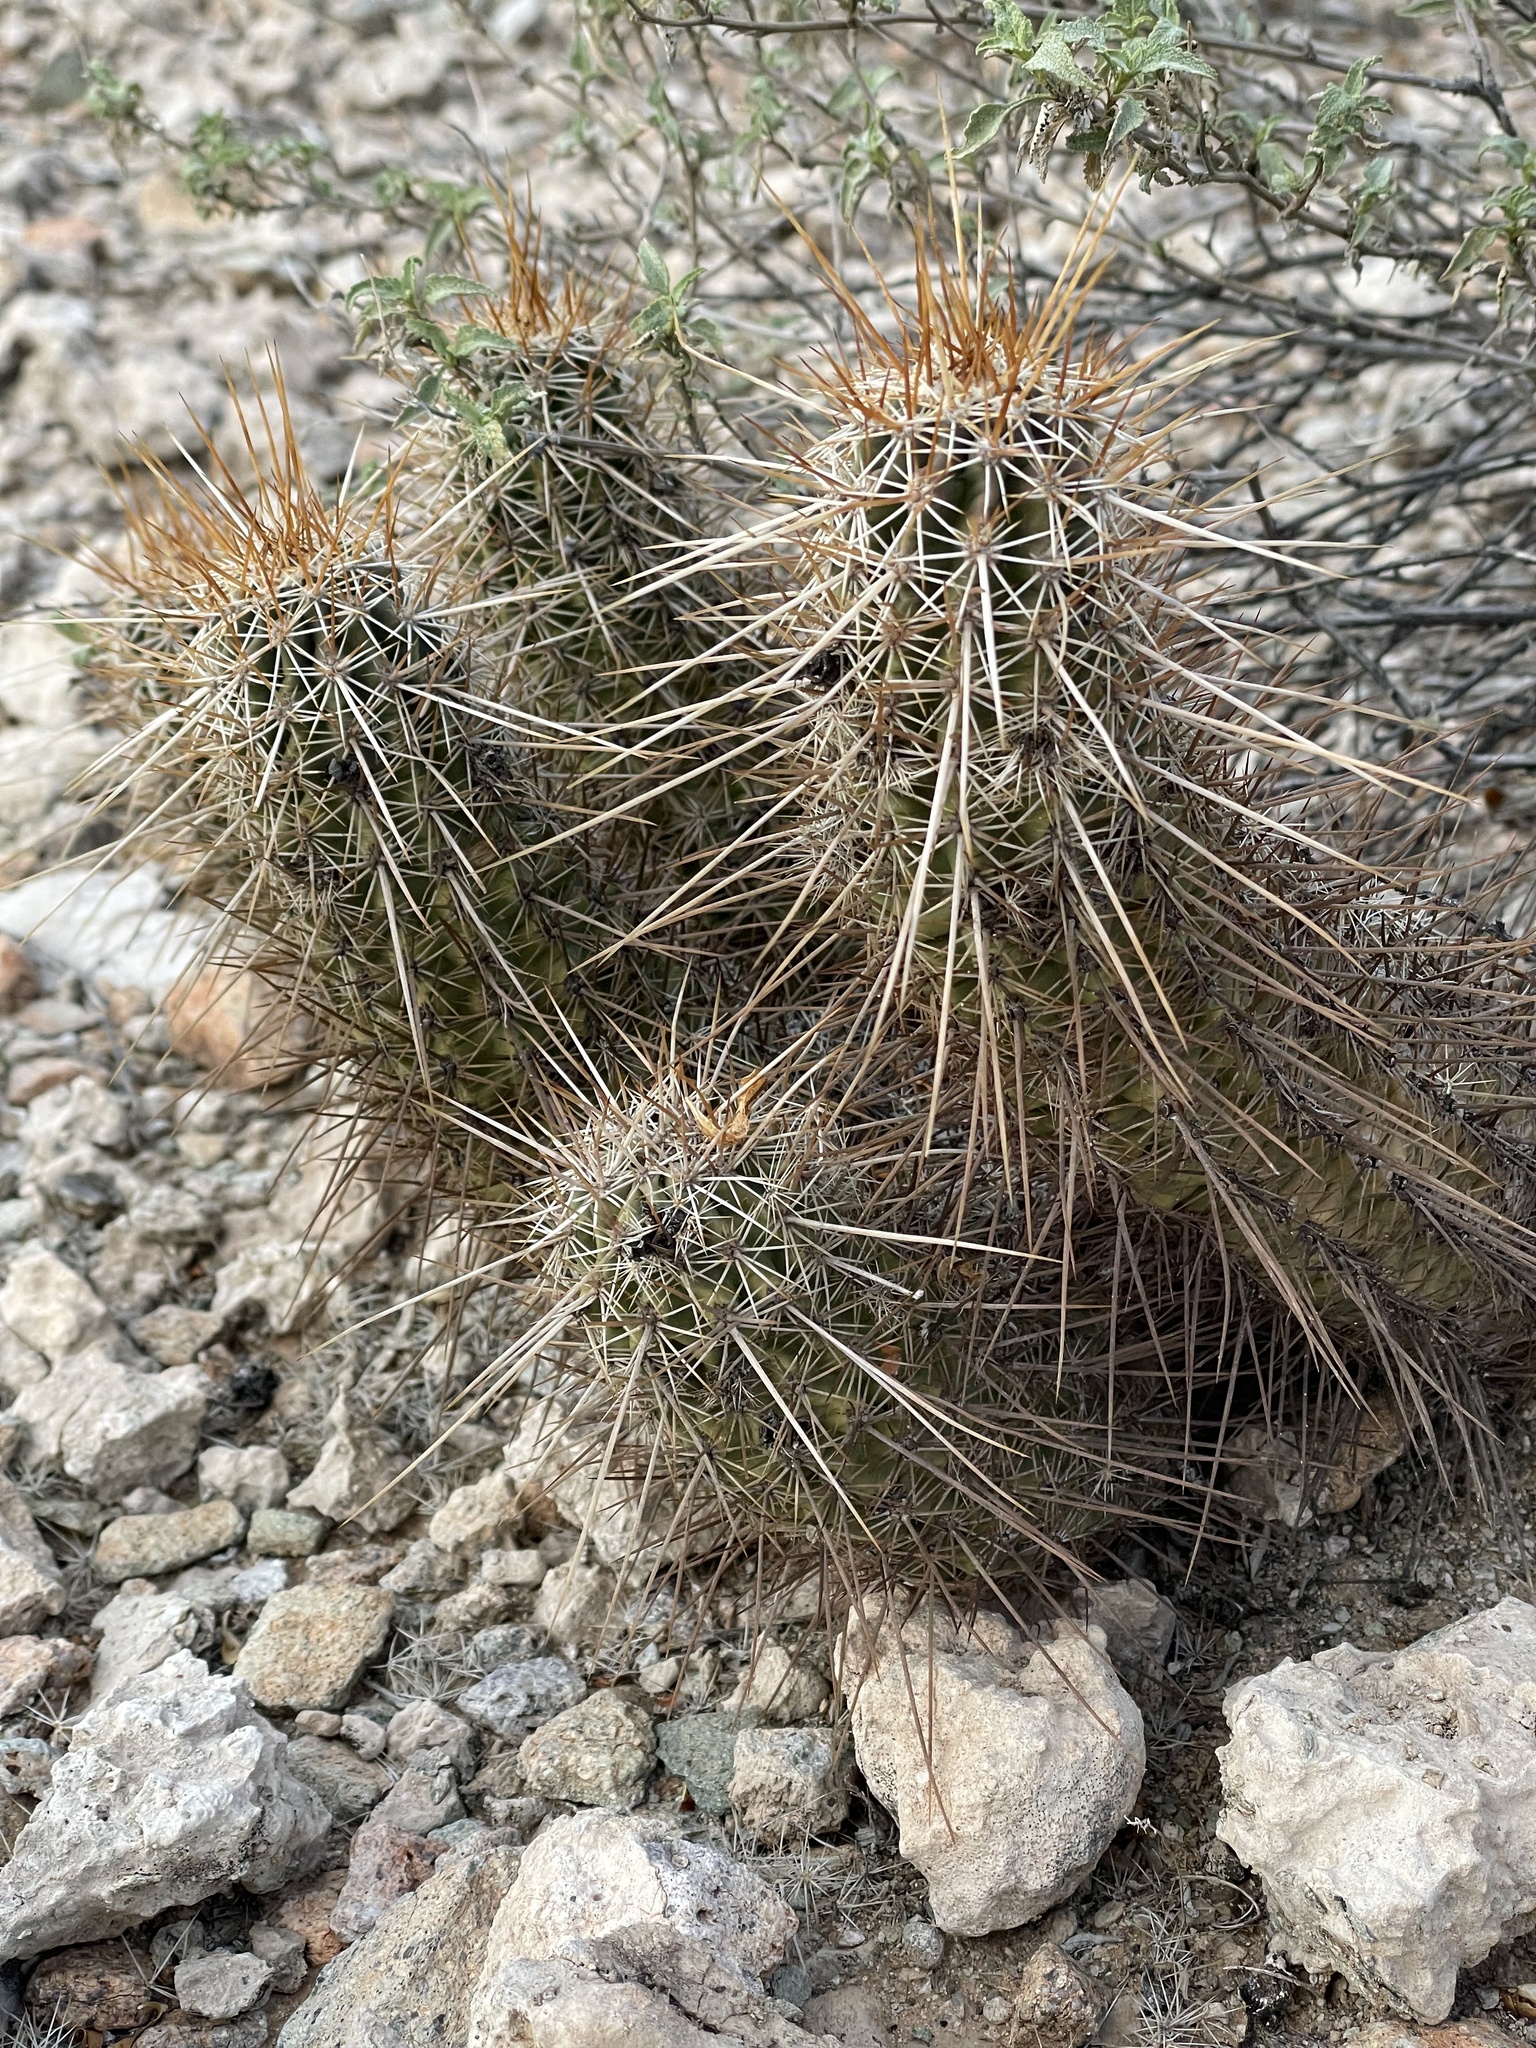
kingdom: Plantae
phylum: Tracheophyta
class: Magnoliopsida
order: Caryophyllales
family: Cactaceae
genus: Echinocereus
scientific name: Echinocereus engelmannii
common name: Engelmann's hedgehog cactus
